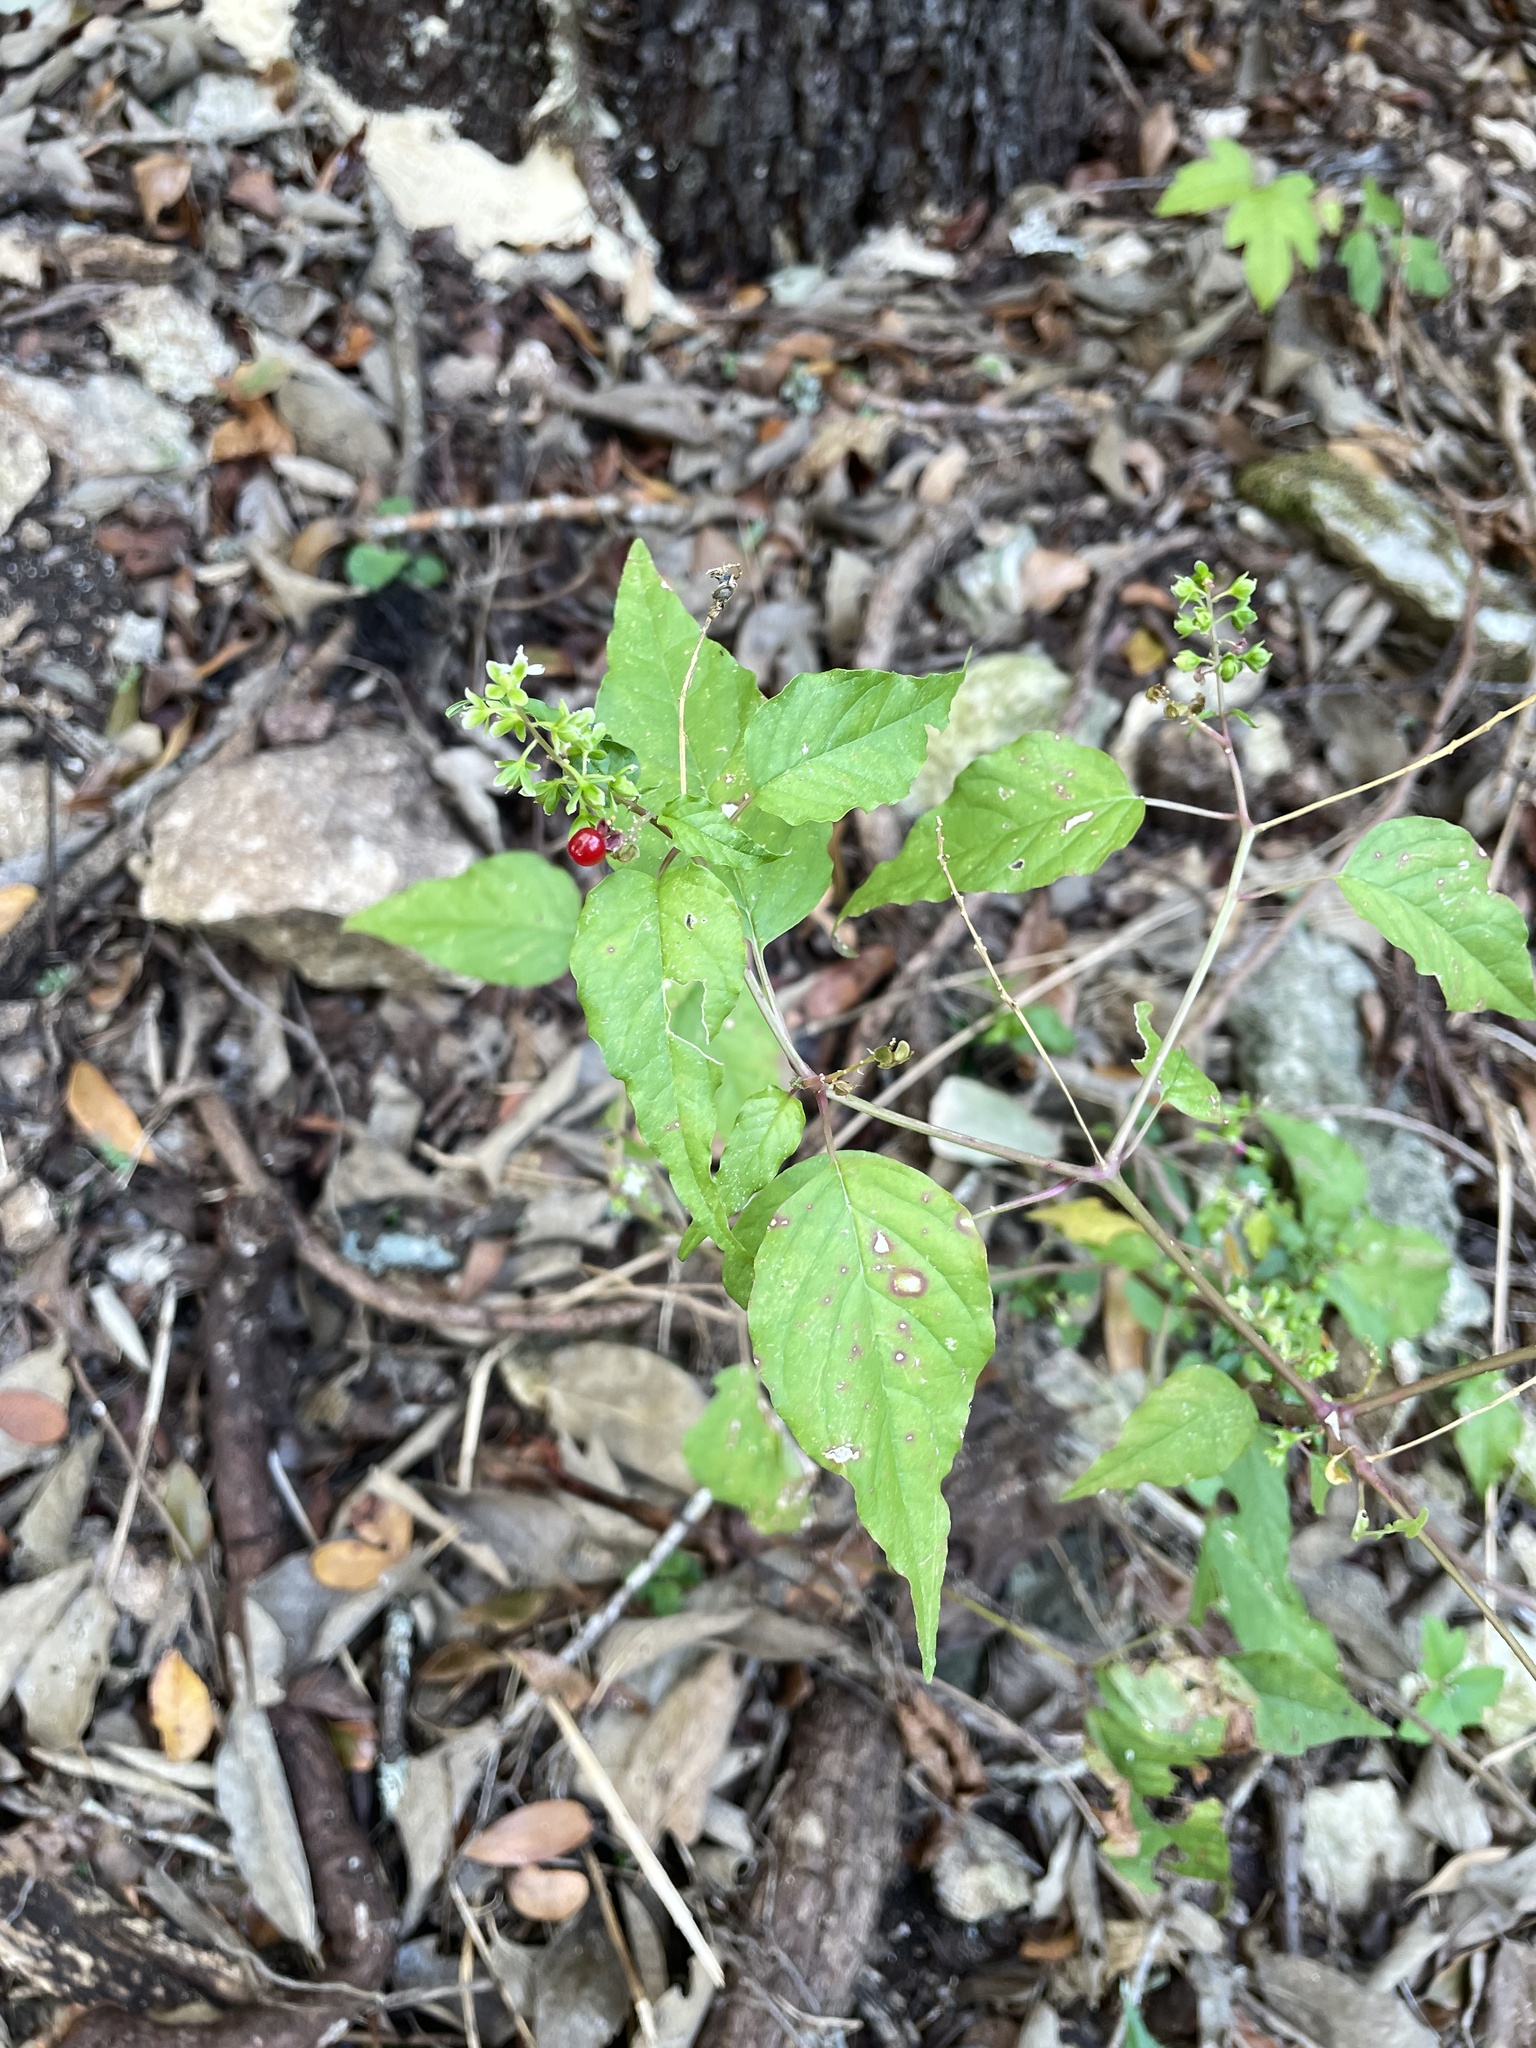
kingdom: Plantae
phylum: Tracheophyta
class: Magnoliopsida
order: Caryophyllales
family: Phytolaccaceae
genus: Rivina
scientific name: Rivina humilis
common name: Rougeplant
